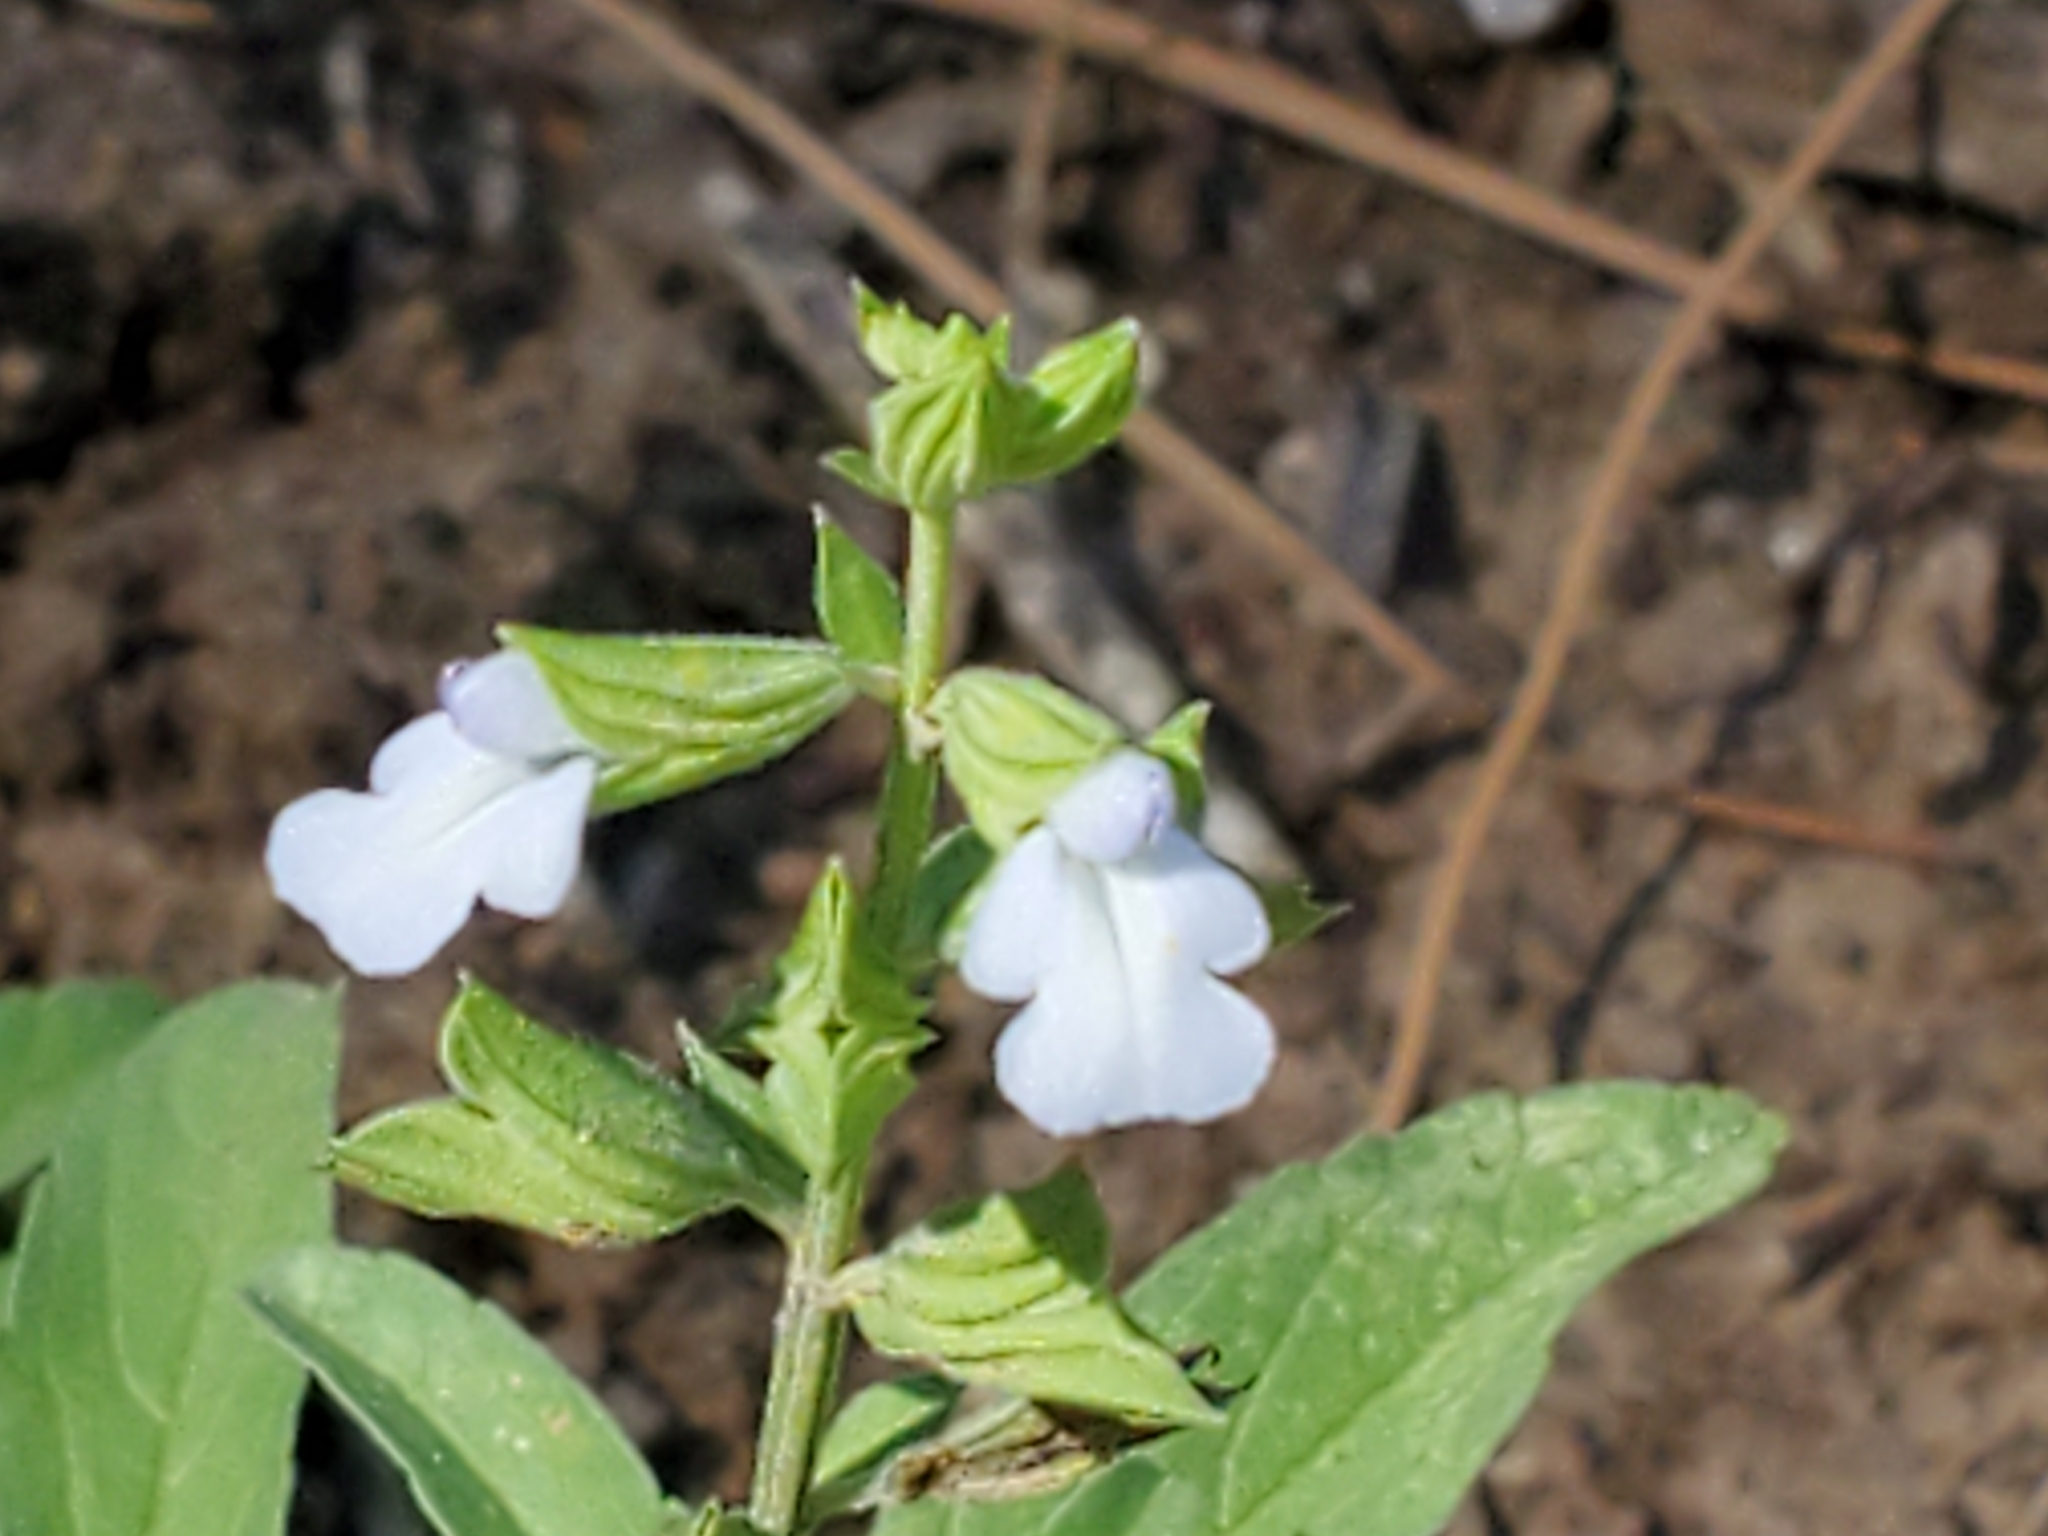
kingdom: Plantae
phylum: Tracheophyta
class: Magnoliopsida
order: Lamiales
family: Lamiaceae
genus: Salvia
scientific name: Salvia reflexa
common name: Mintweed
